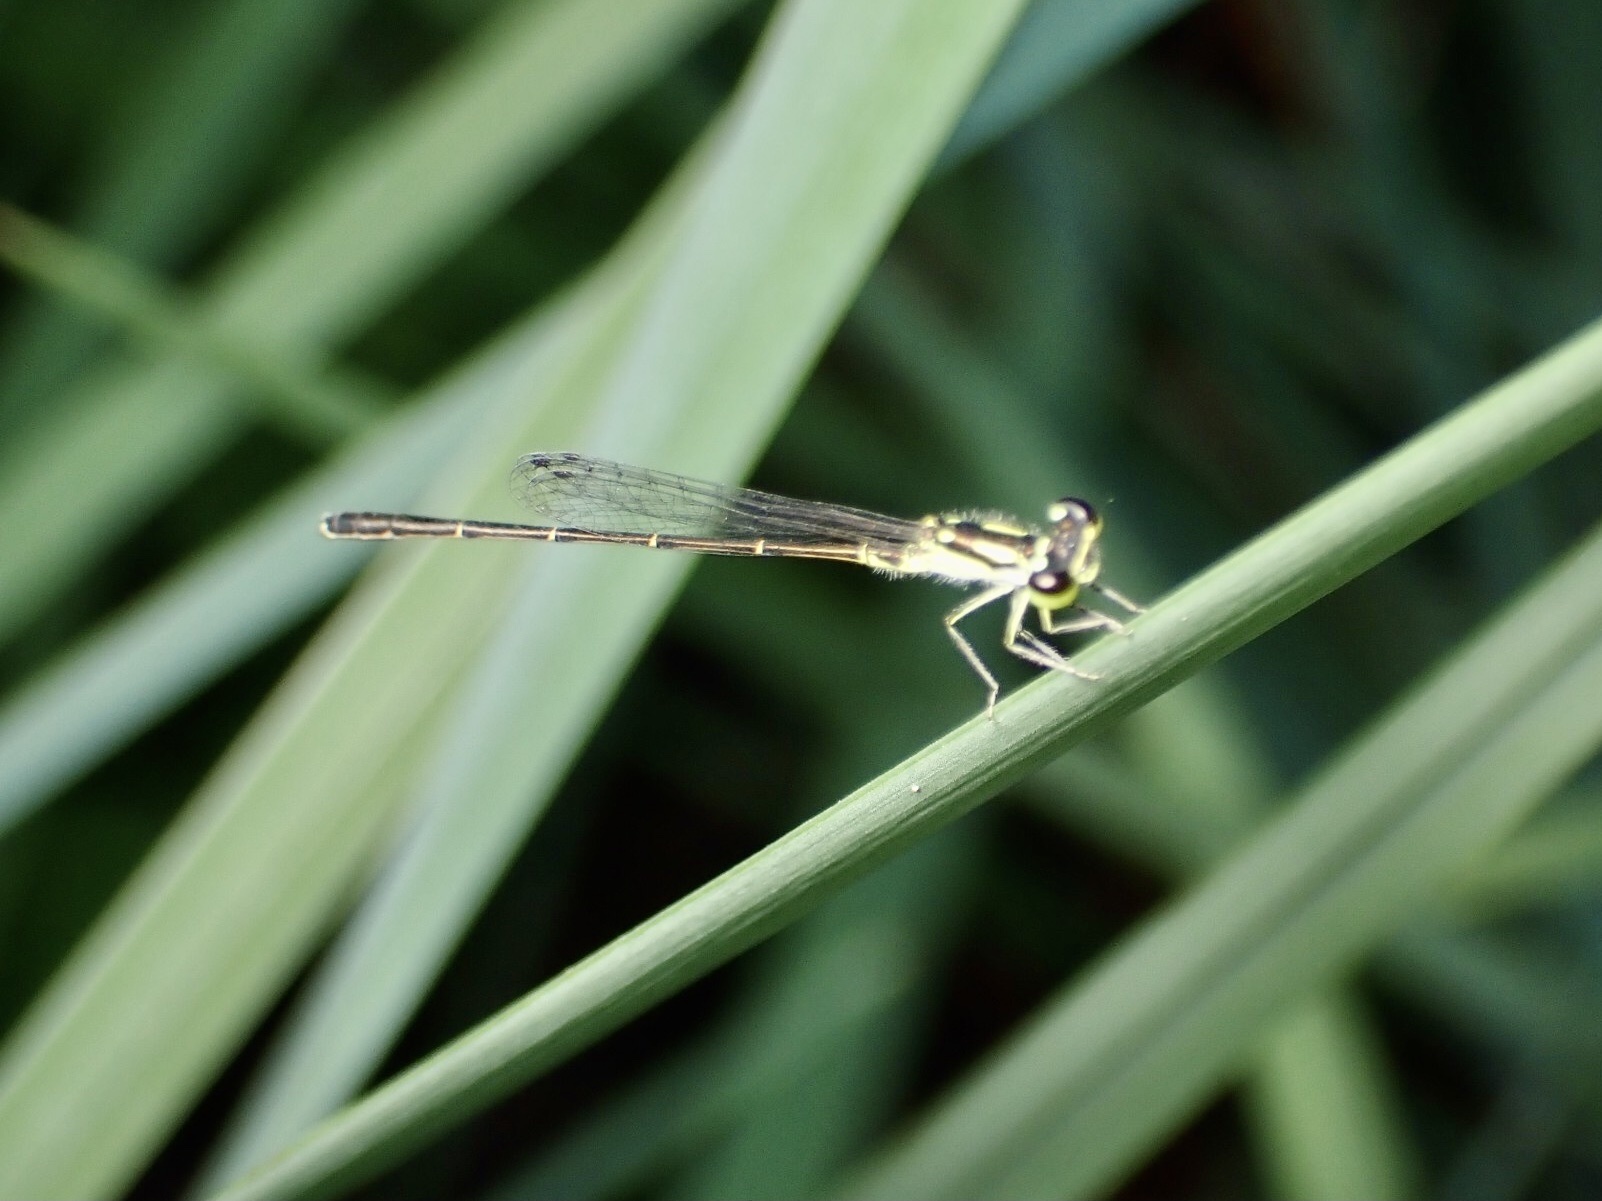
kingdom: Animalia
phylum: Arthropoda
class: Insecta
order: Odonata
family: Coenagrionidae
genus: Ischnura
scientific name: Ischnura posita
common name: Fragile forktail
